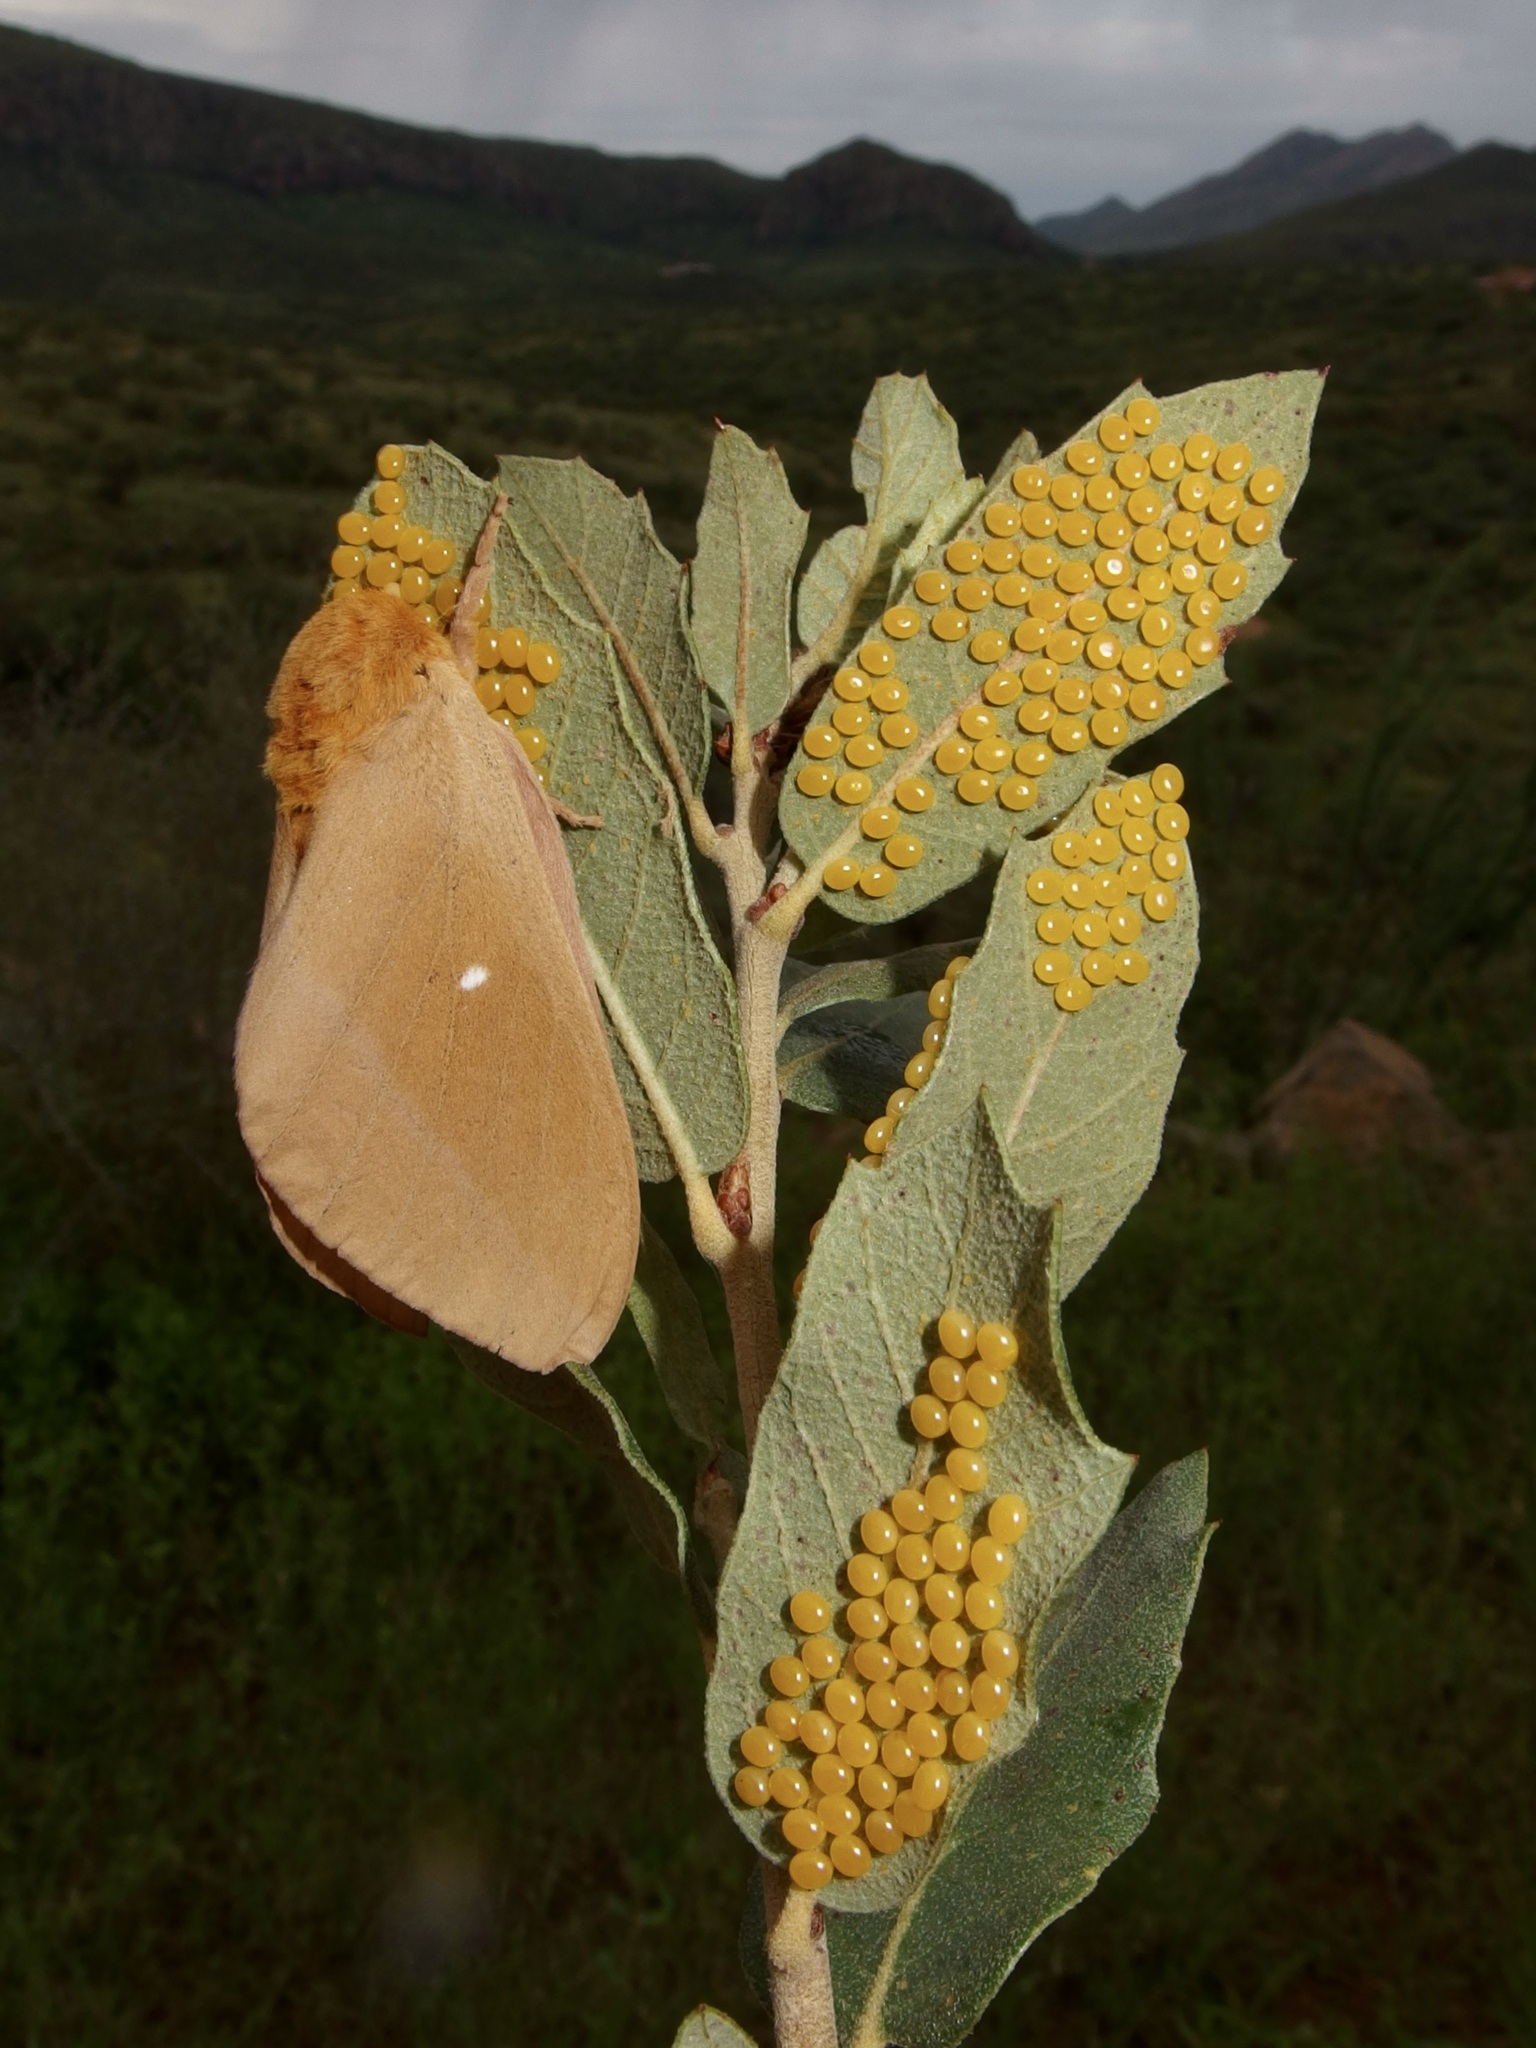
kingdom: Animalia
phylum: Arthropoda
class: Insecta
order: Lepidoptera
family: Saturniidae
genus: Anisota
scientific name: Anisota oslari
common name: Oslar's oakworm moth
